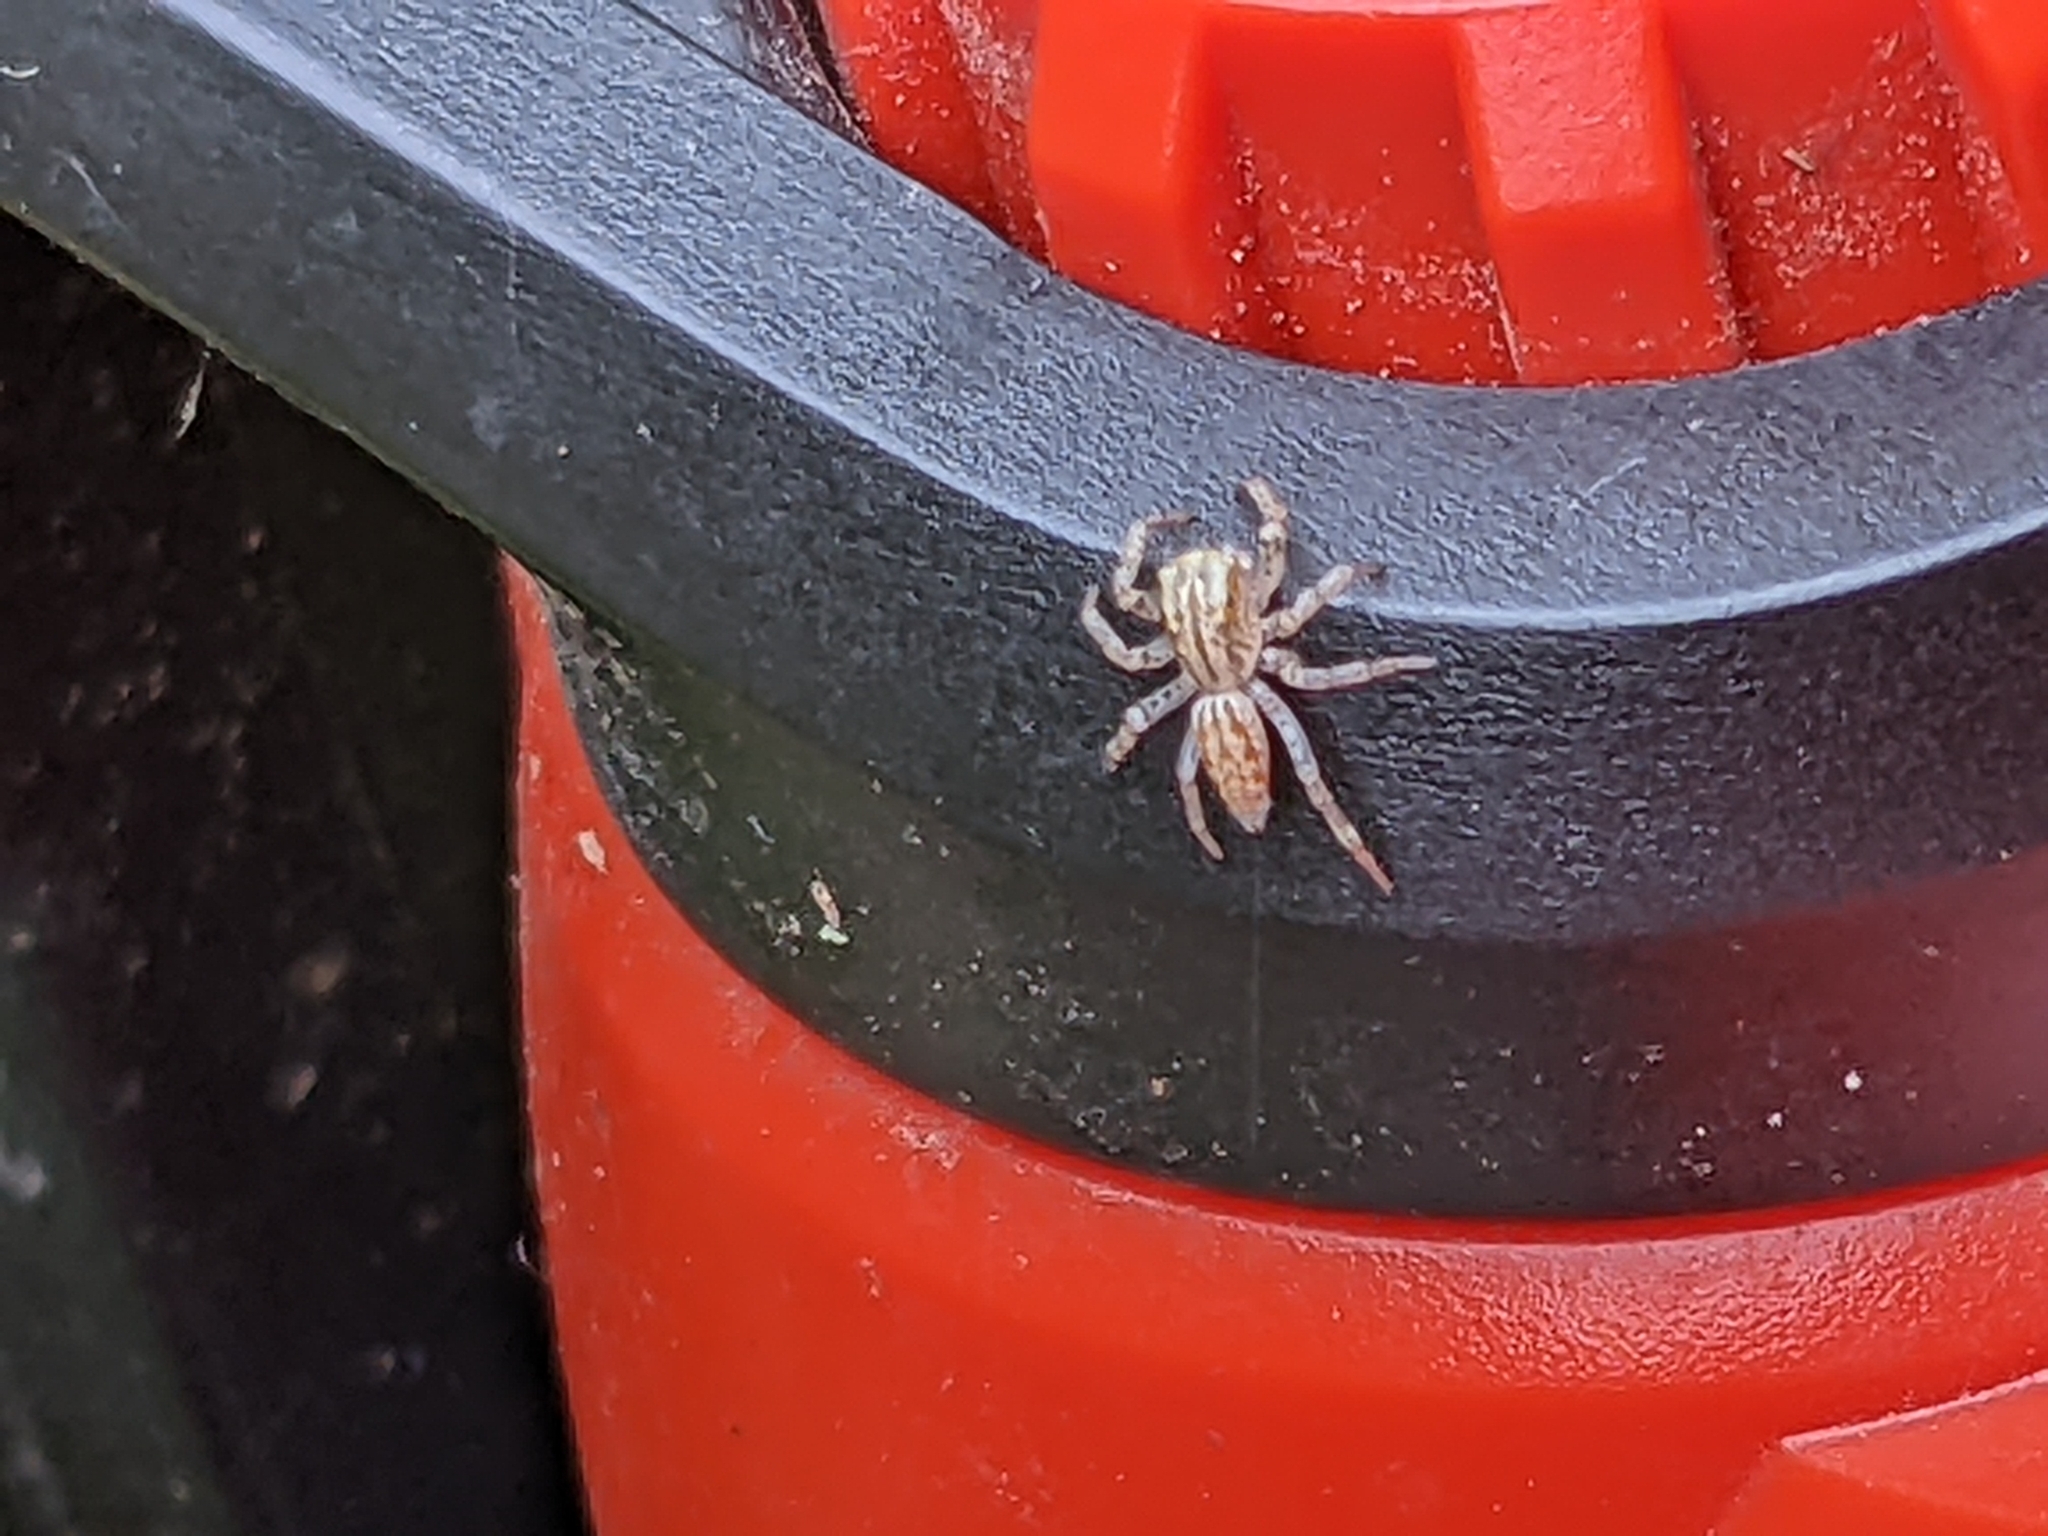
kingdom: Animalia
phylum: Arthropoda
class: Arachnida
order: Araneae
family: Salticidae
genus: Maevia
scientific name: Maevia inclemens
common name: Dimorphic jumper
